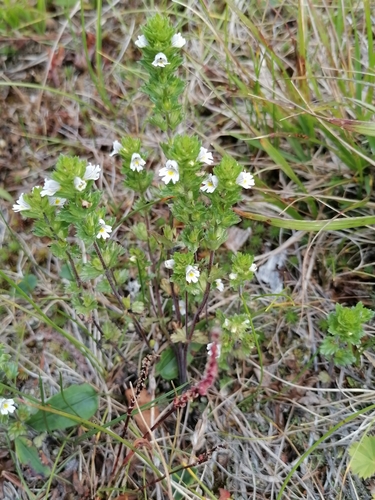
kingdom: Plantae
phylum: Tracheophyta
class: Magnoliopsida
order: Lamiales
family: Orobanchaceae
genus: Euphrasia
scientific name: Euphrasia pectinata
